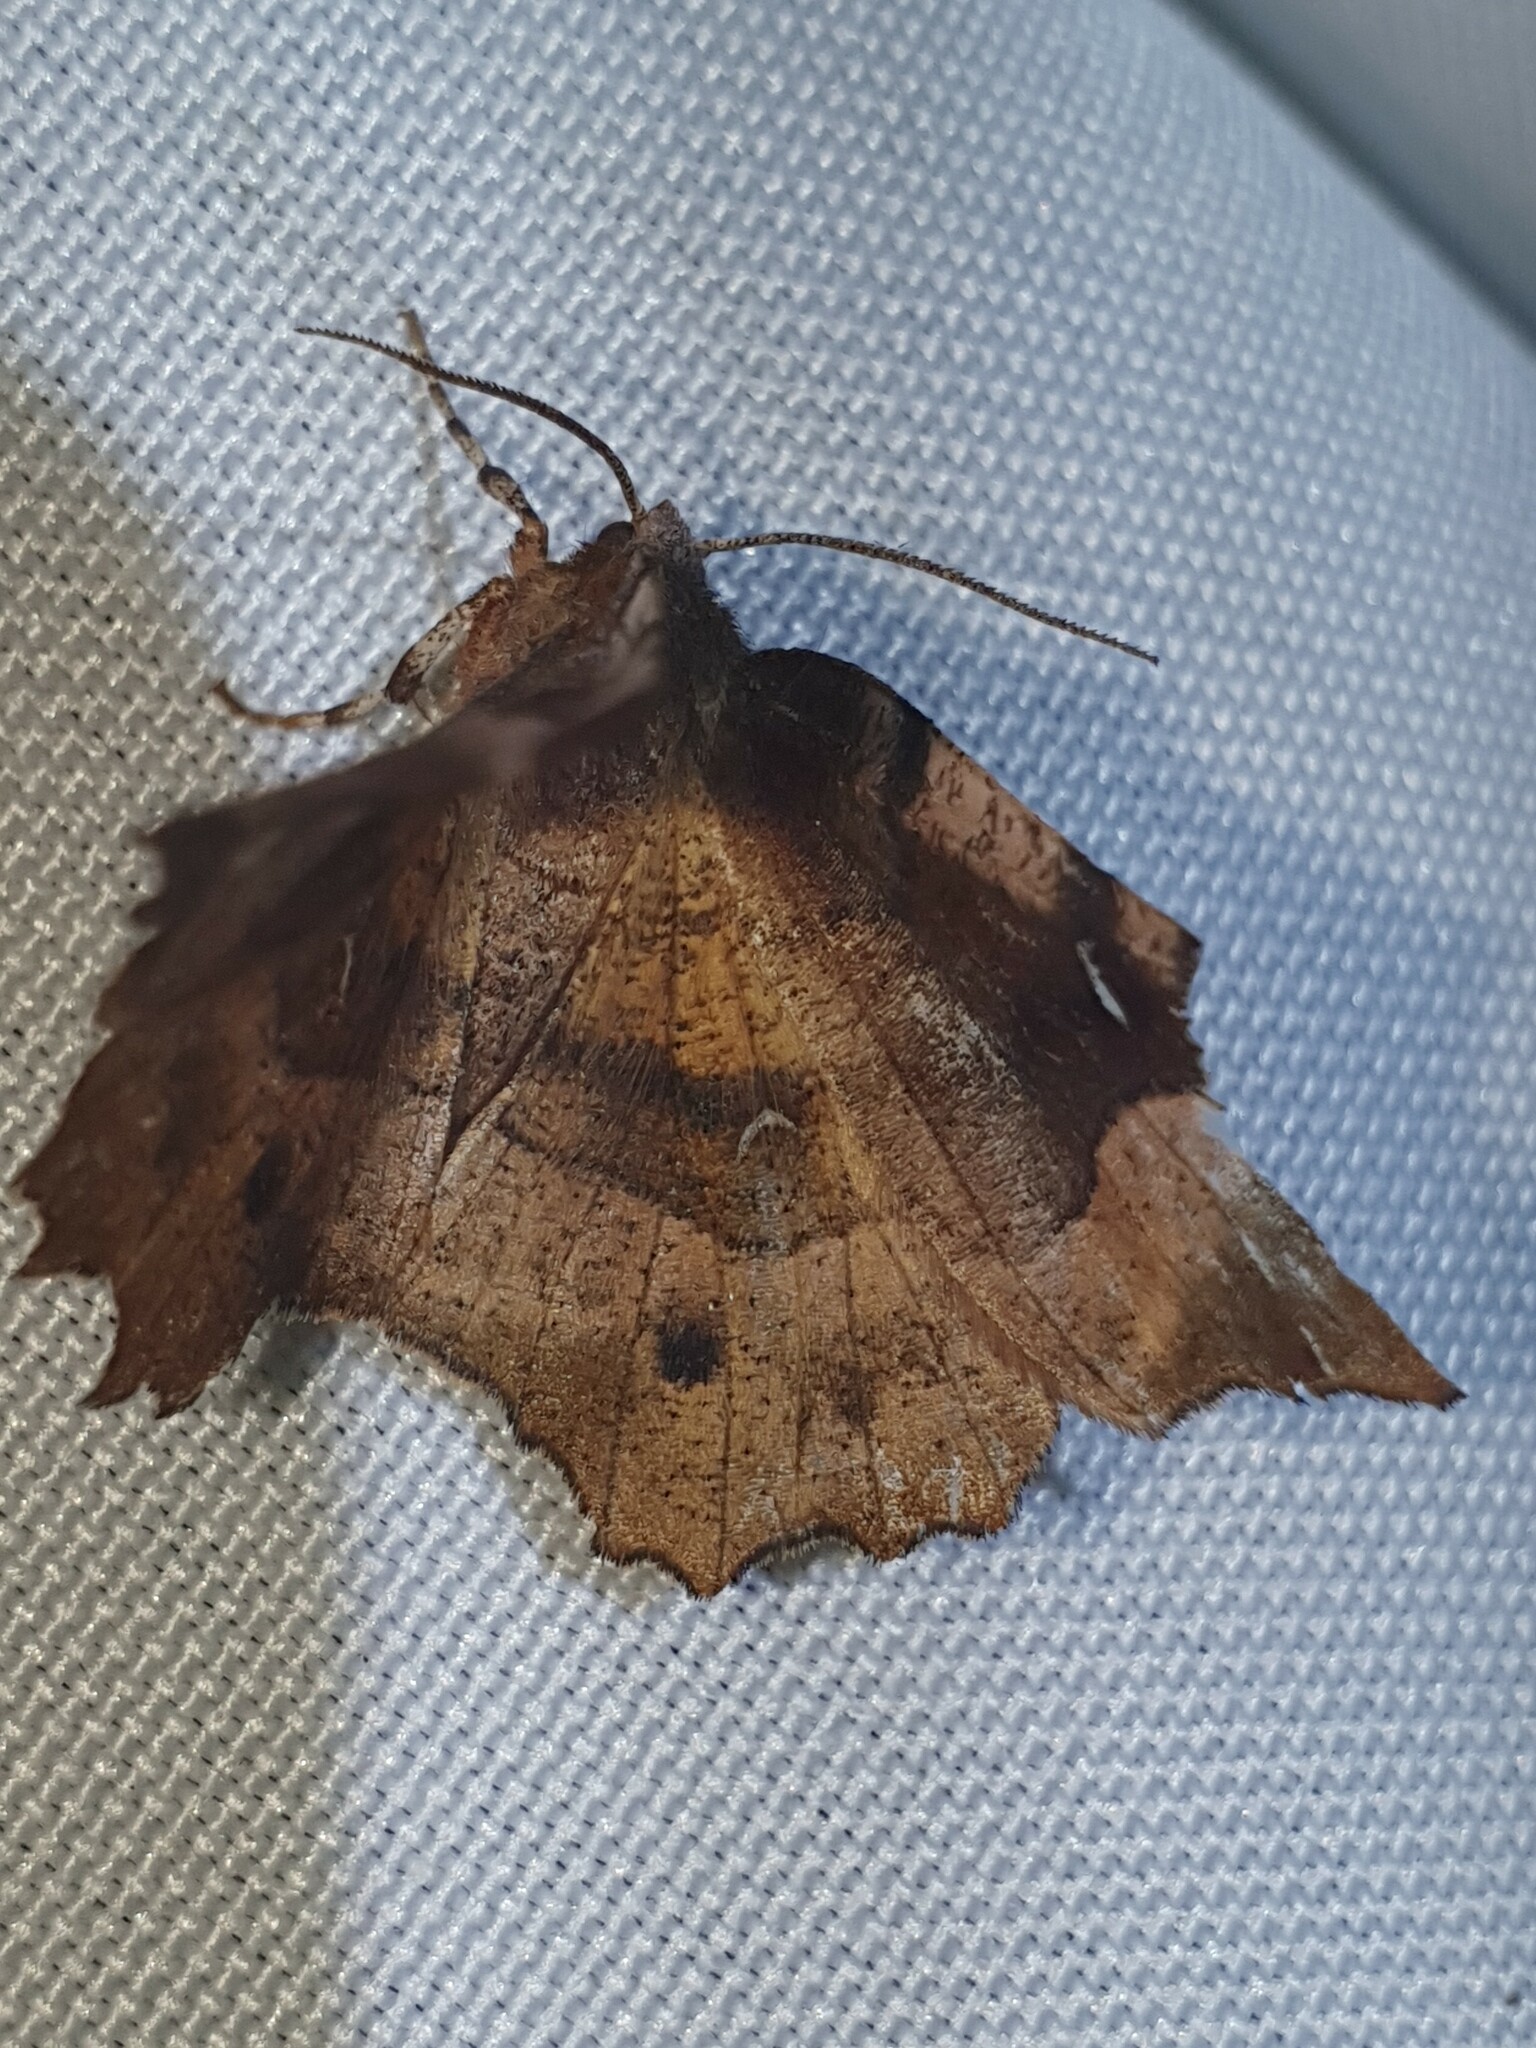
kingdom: Animalia
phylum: Arthropoda
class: Insecta
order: Lepidoptera
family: Geometridae
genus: Selenia
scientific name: Selenia tetralunaria
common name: Purple thorn
